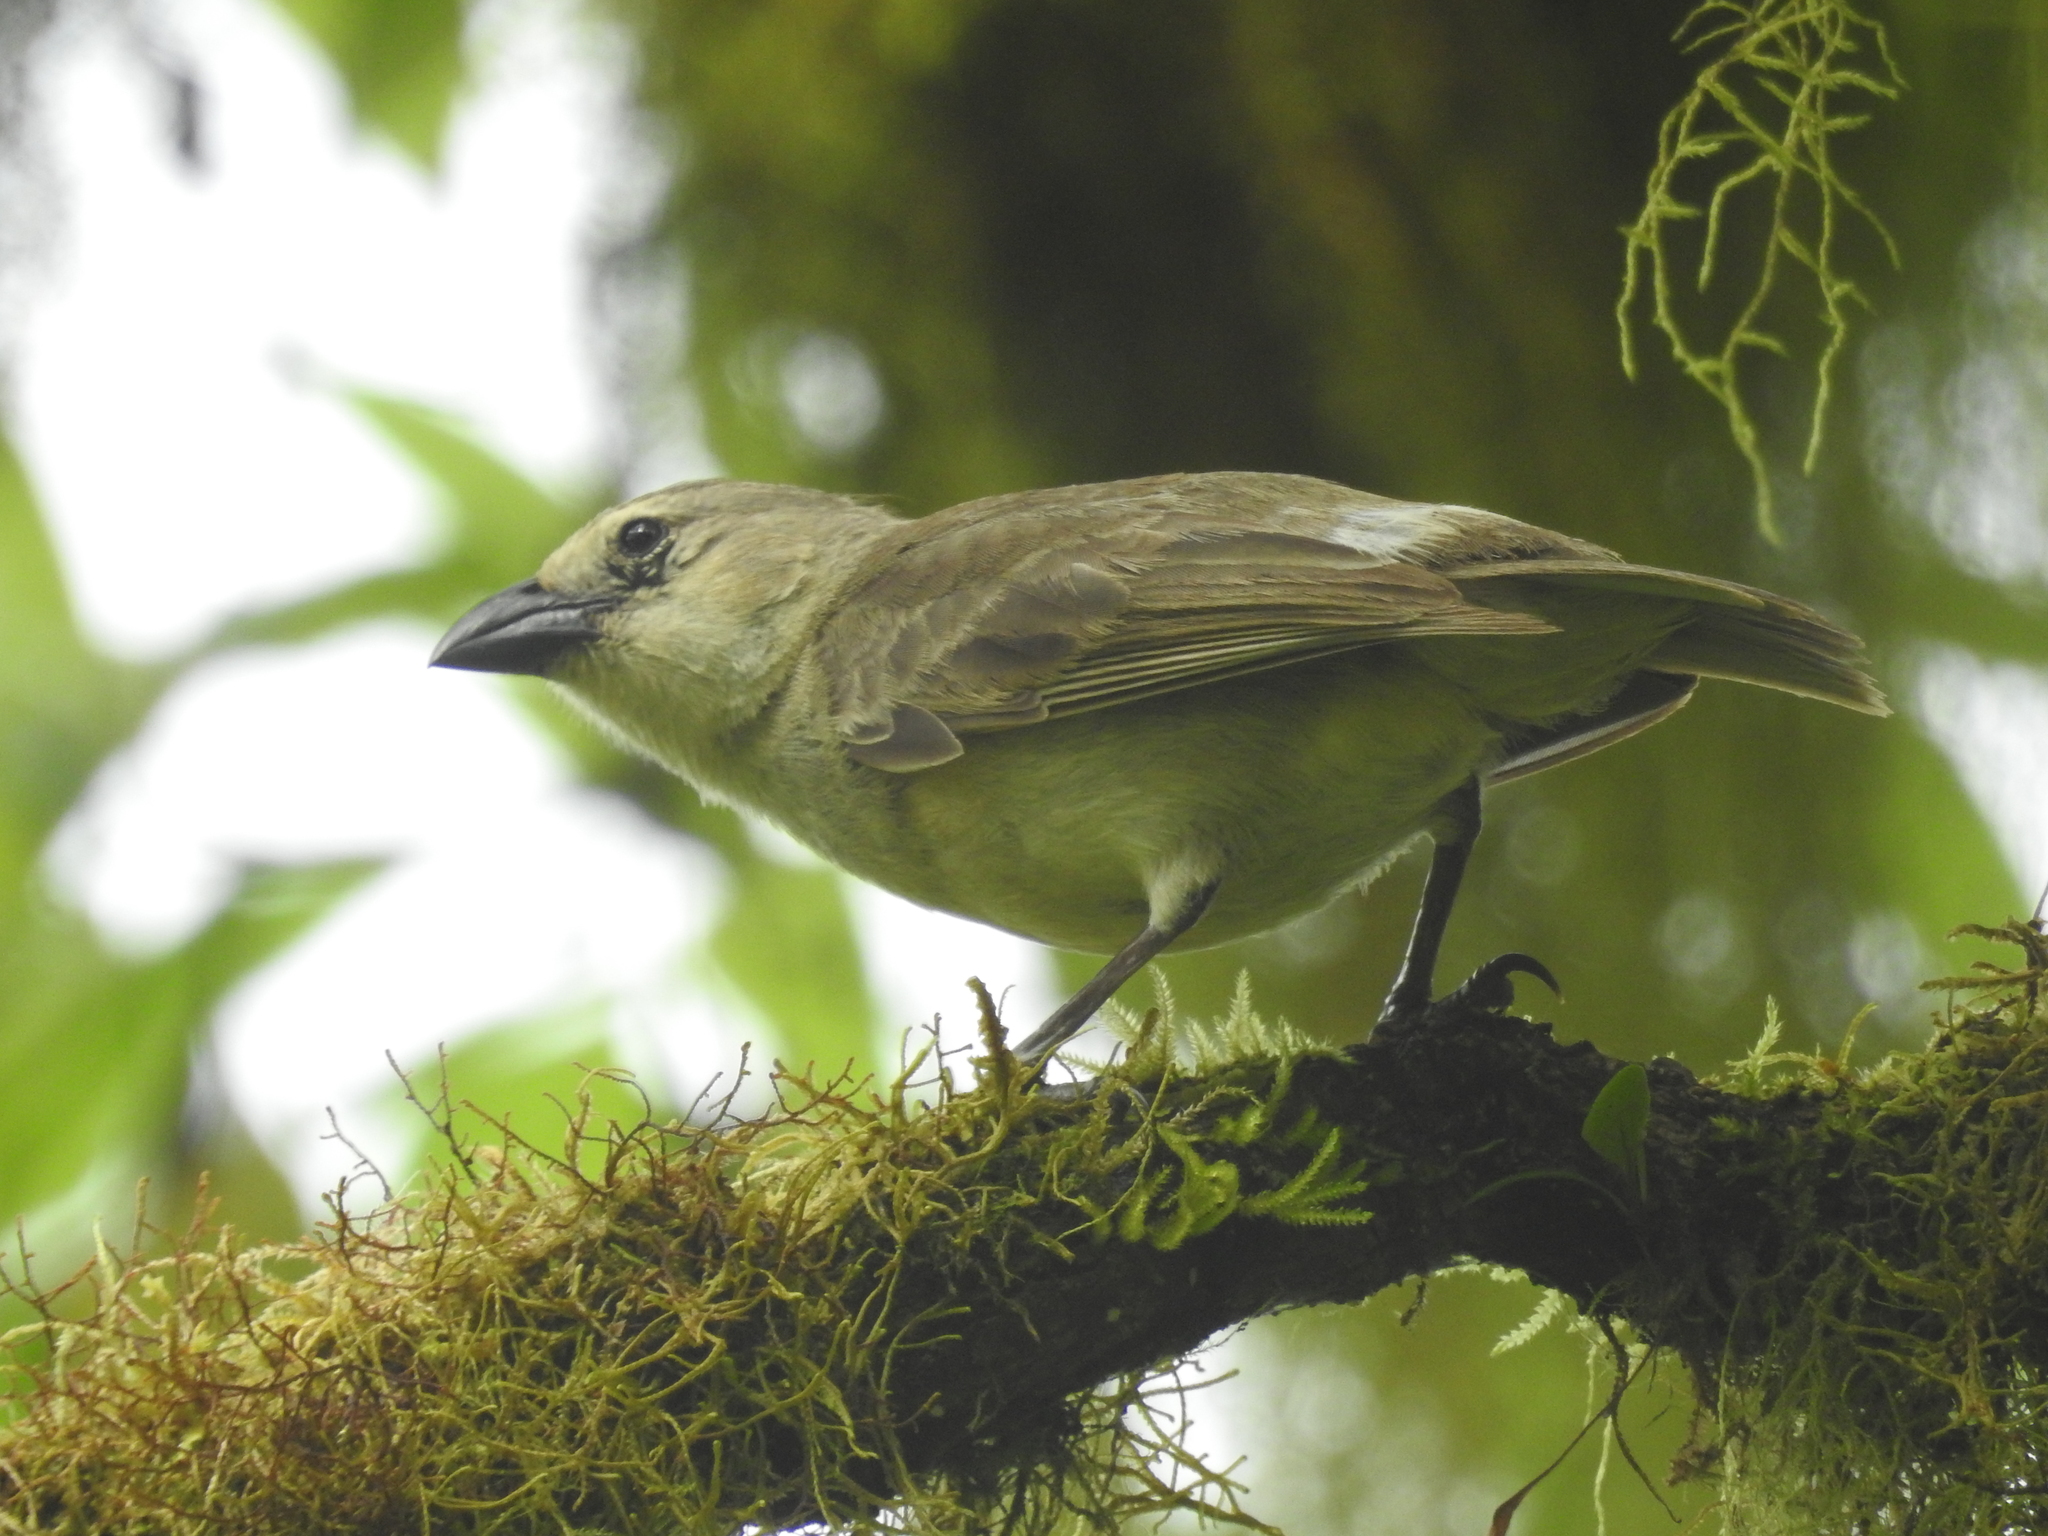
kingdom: Animalia
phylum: Chordata
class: Aves
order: Passeriformes
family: Thraupidae
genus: Camarhynchus
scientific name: Camarhynchus pallidus
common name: Woodpecker finch
